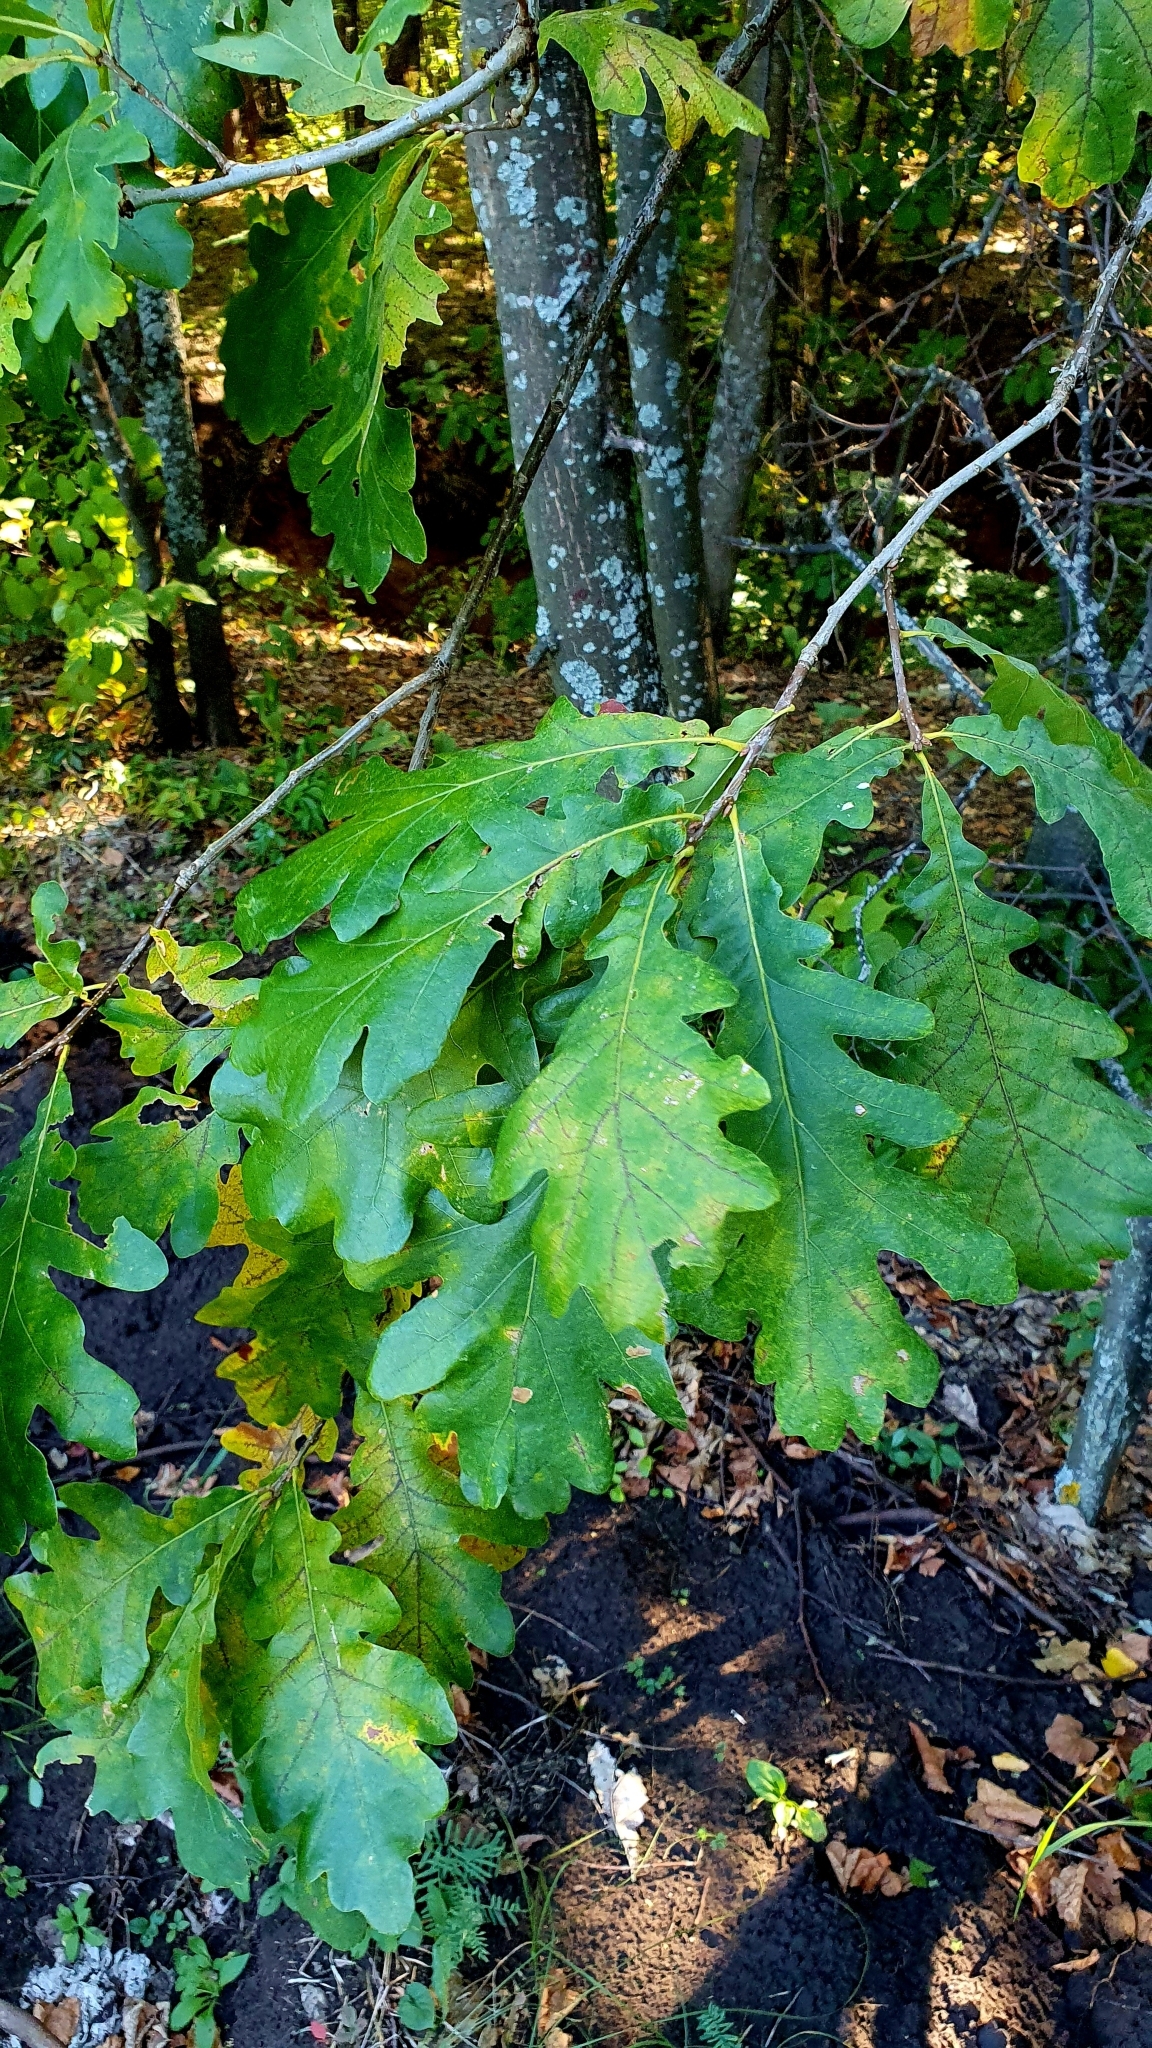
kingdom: Plantae
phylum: Tracheophyta
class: Magnoliopsida
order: Fagales
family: Fagaceae
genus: Quercus
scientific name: Quercus robur
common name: Pedunculate oak
